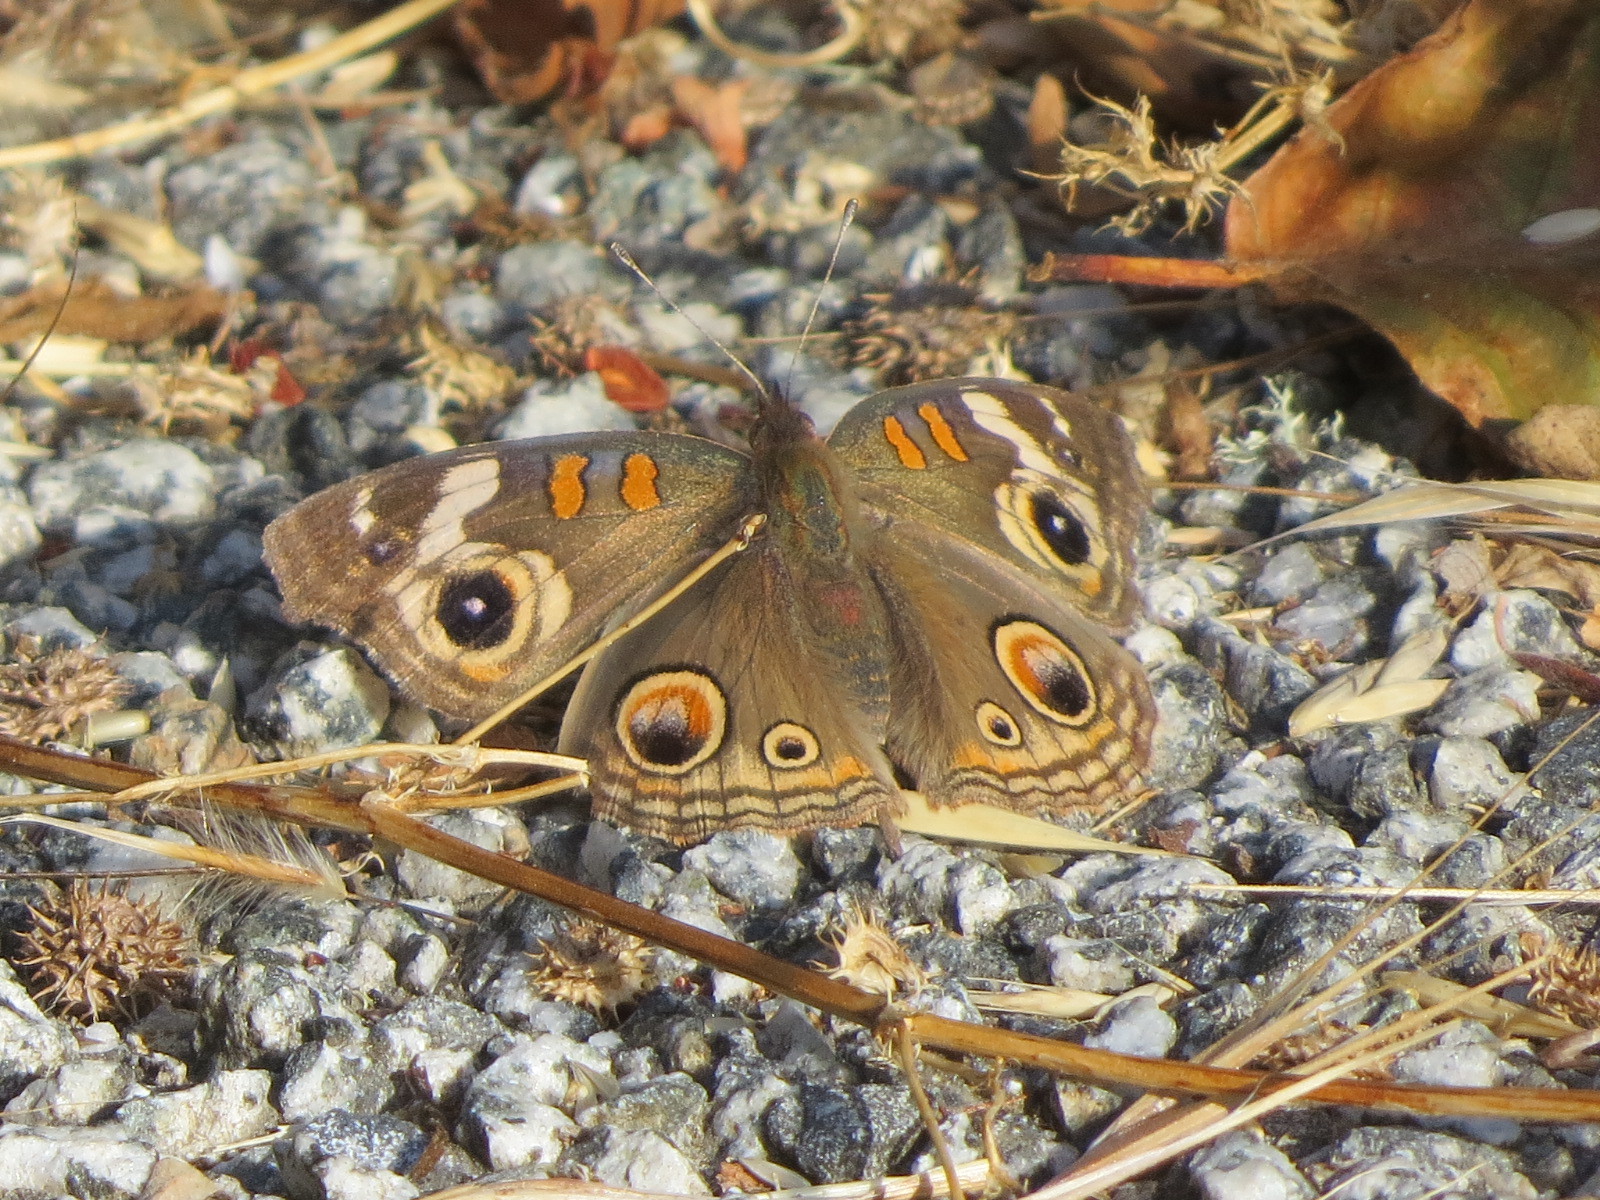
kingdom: Animalia
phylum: Arthropoda
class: Insecta
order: Lepidoptera
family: Nymphalidae
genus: Junonia
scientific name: Junonia grisea
